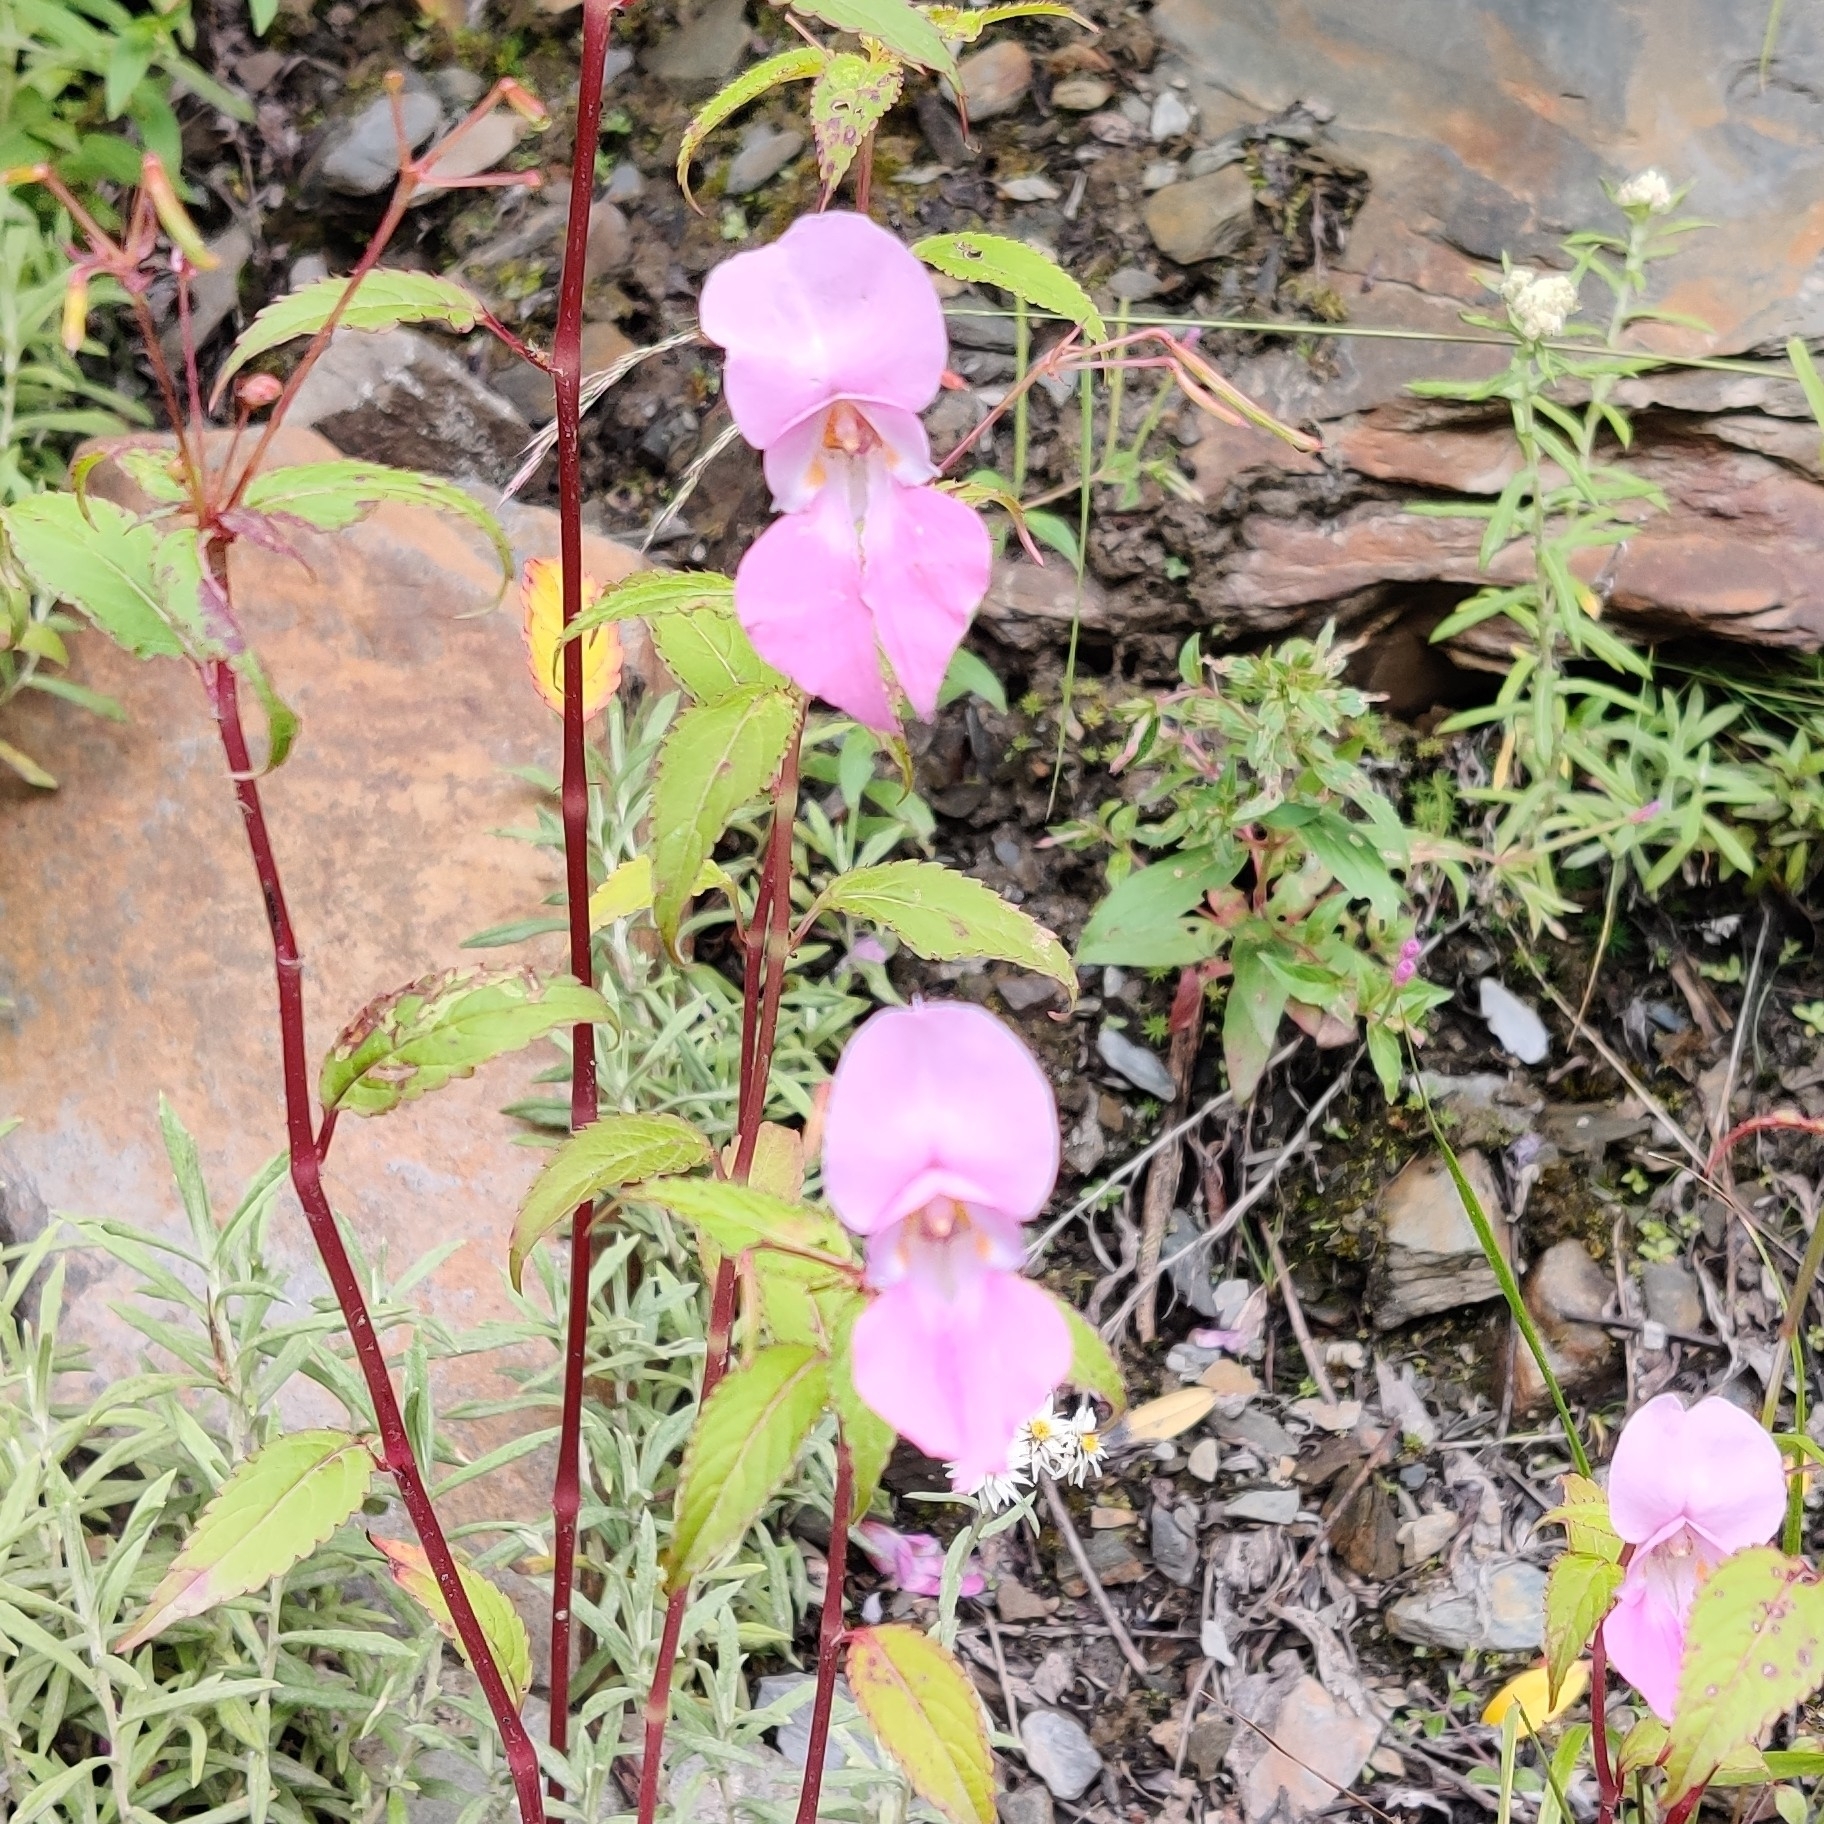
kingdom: Plantae
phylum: Tracheophyta
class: Magnoliopsida
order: Ericales
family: Balsaminaceae
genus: Impatiens
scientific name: Impatiens glandulifera
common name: Himalayan balsam
